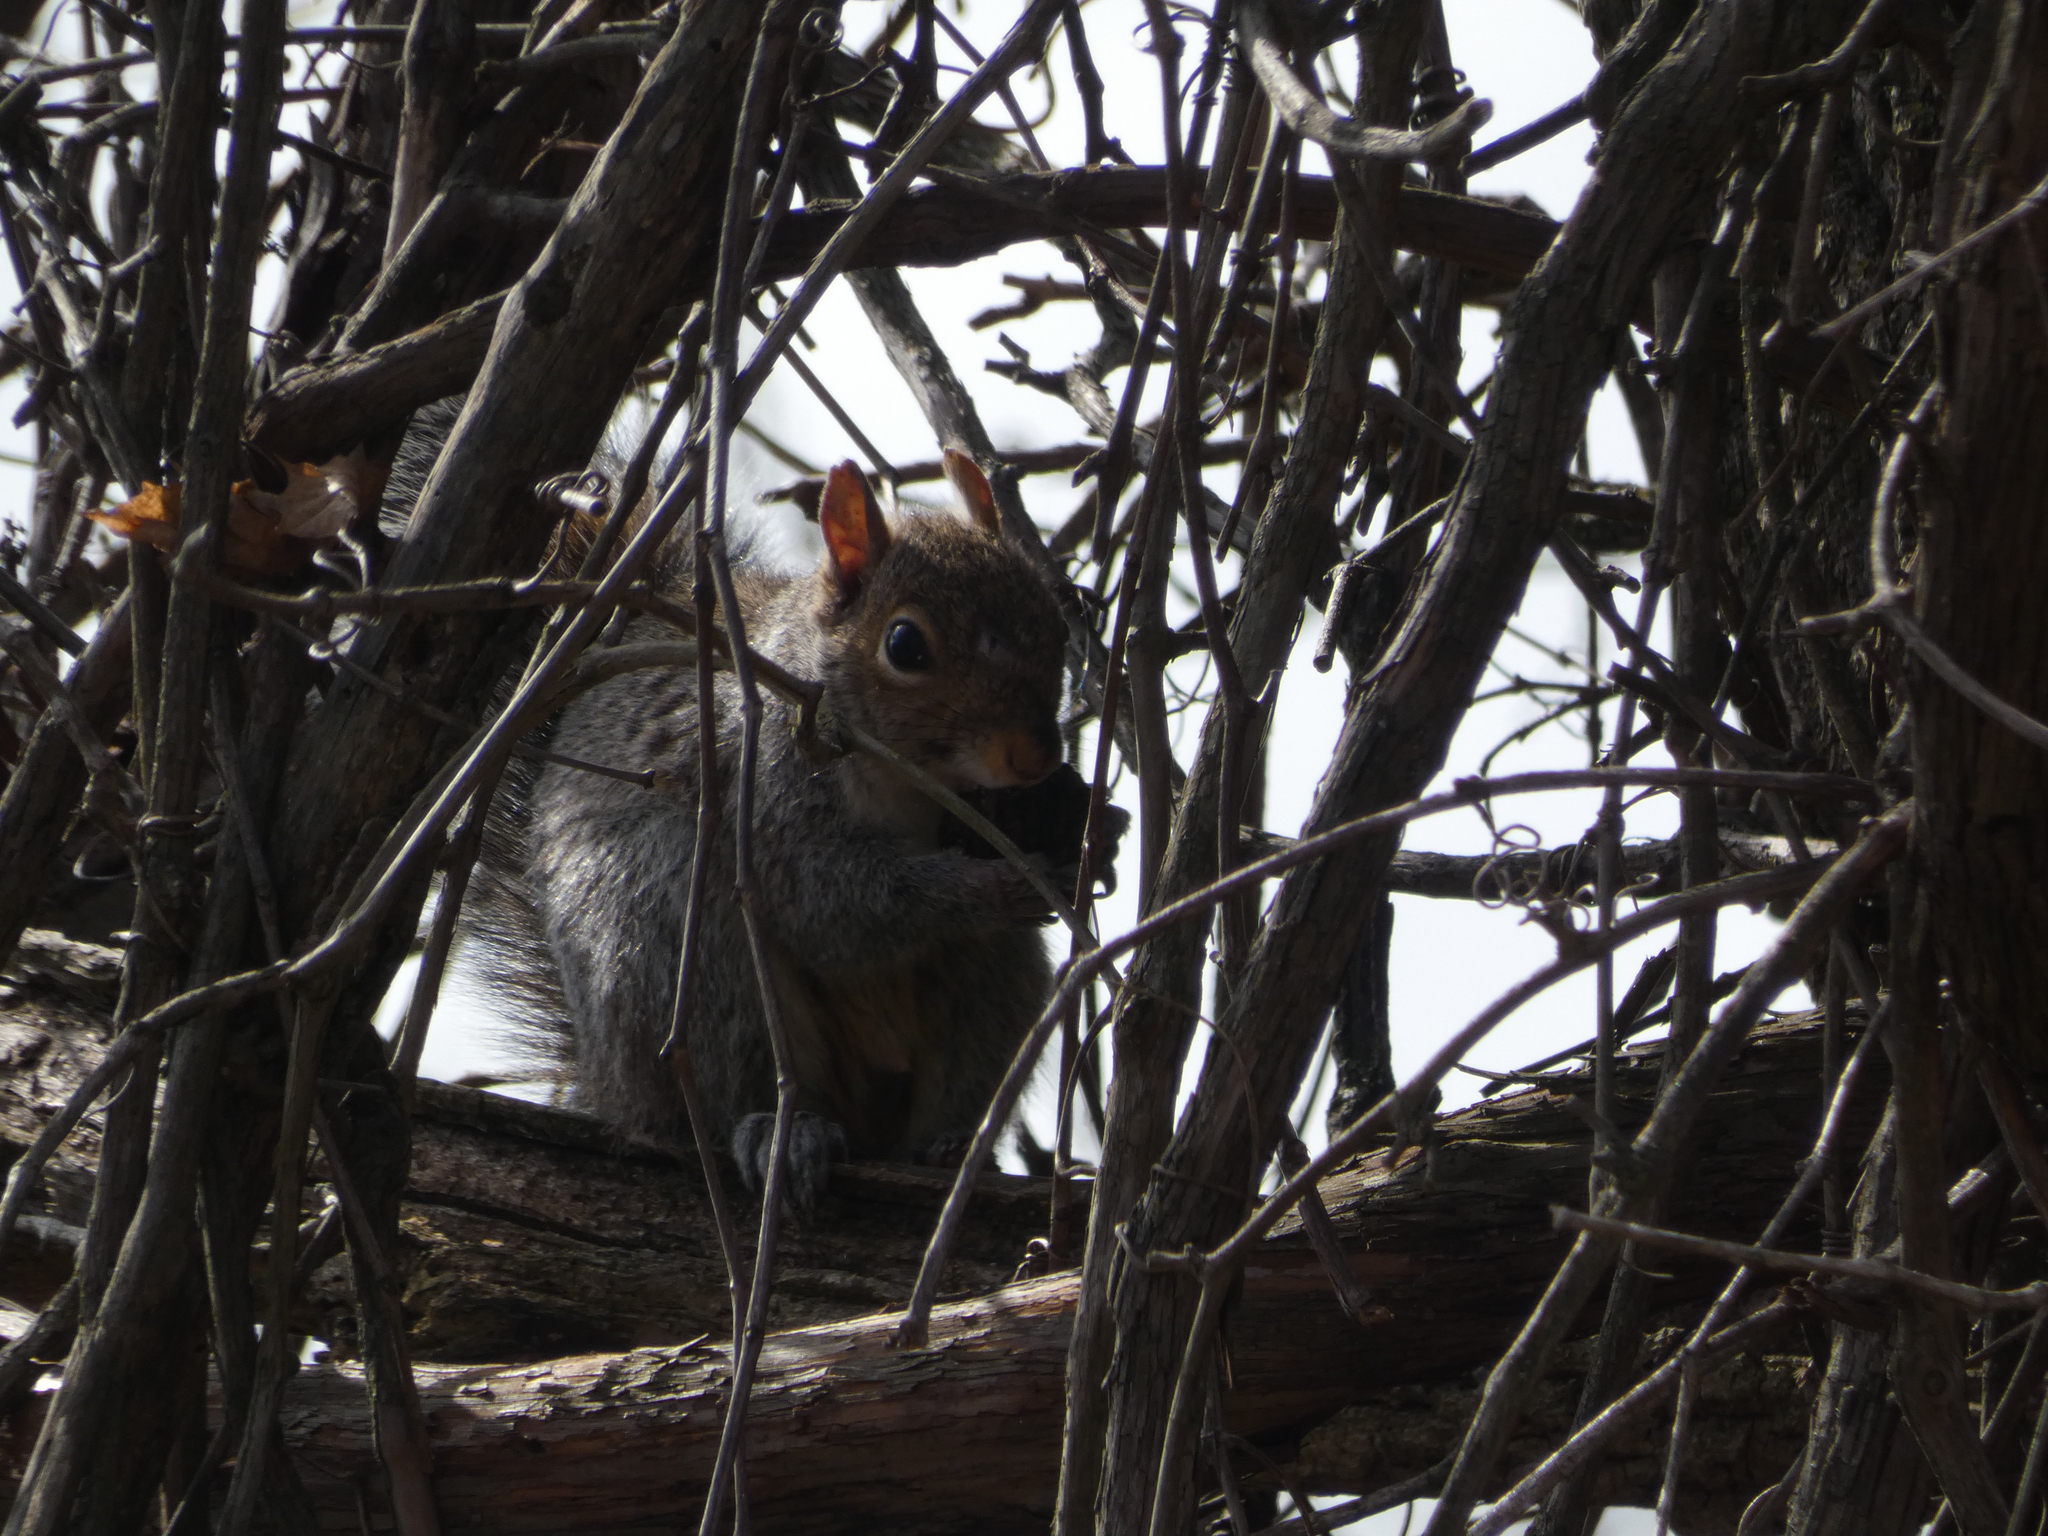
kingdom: Animalia
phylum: Chordata
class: Mammalia
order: Rodentia
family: Sciuridae
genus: Sciurus
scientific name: Sciurus carolinensis
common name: Eastern gray squirrel
